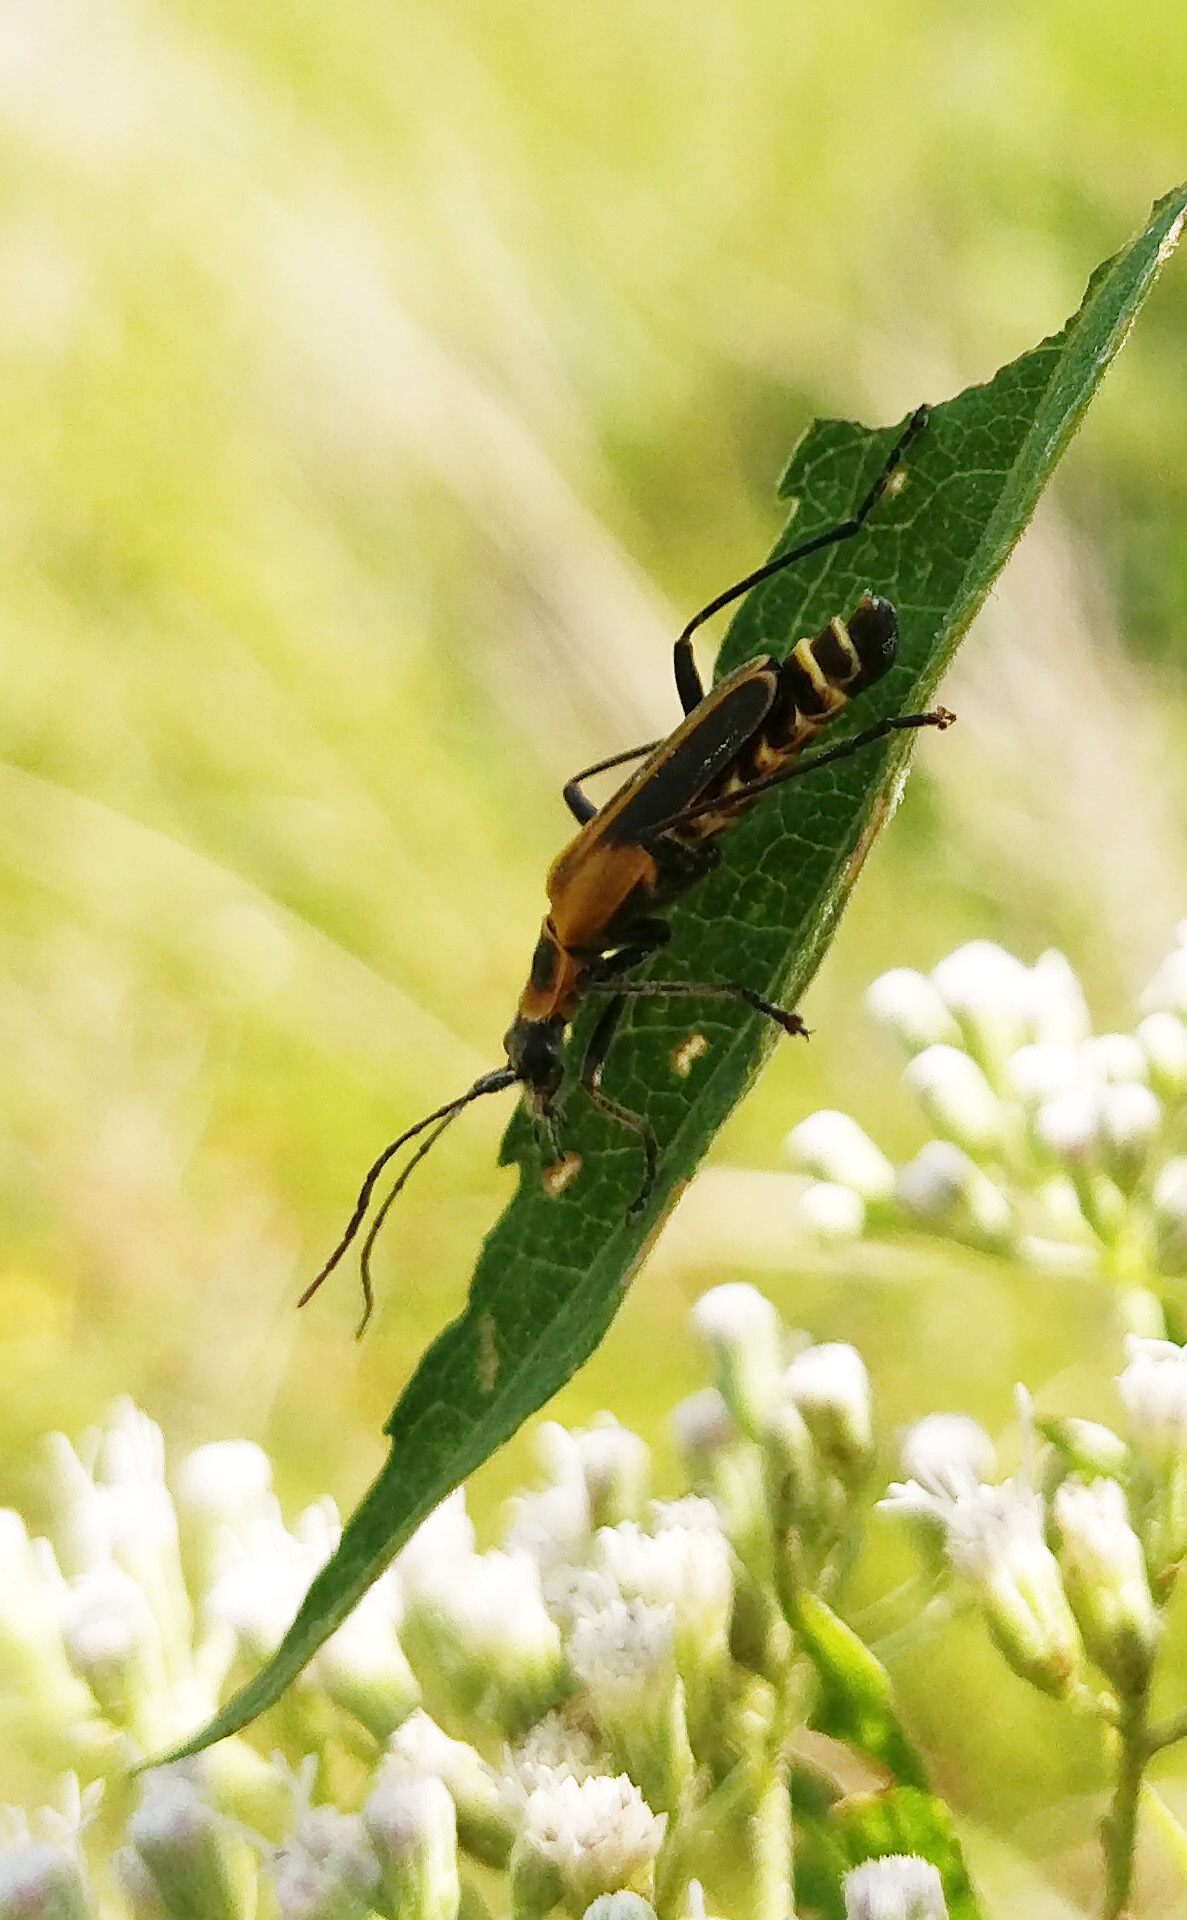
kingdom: Animalia
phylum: Arthropoda
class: Insecta
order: Coleoptera
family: Cantharidae
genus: Chauliognathus
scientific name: Chauliognathus pensylvanicus
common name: Goldenrod soldier beetle
